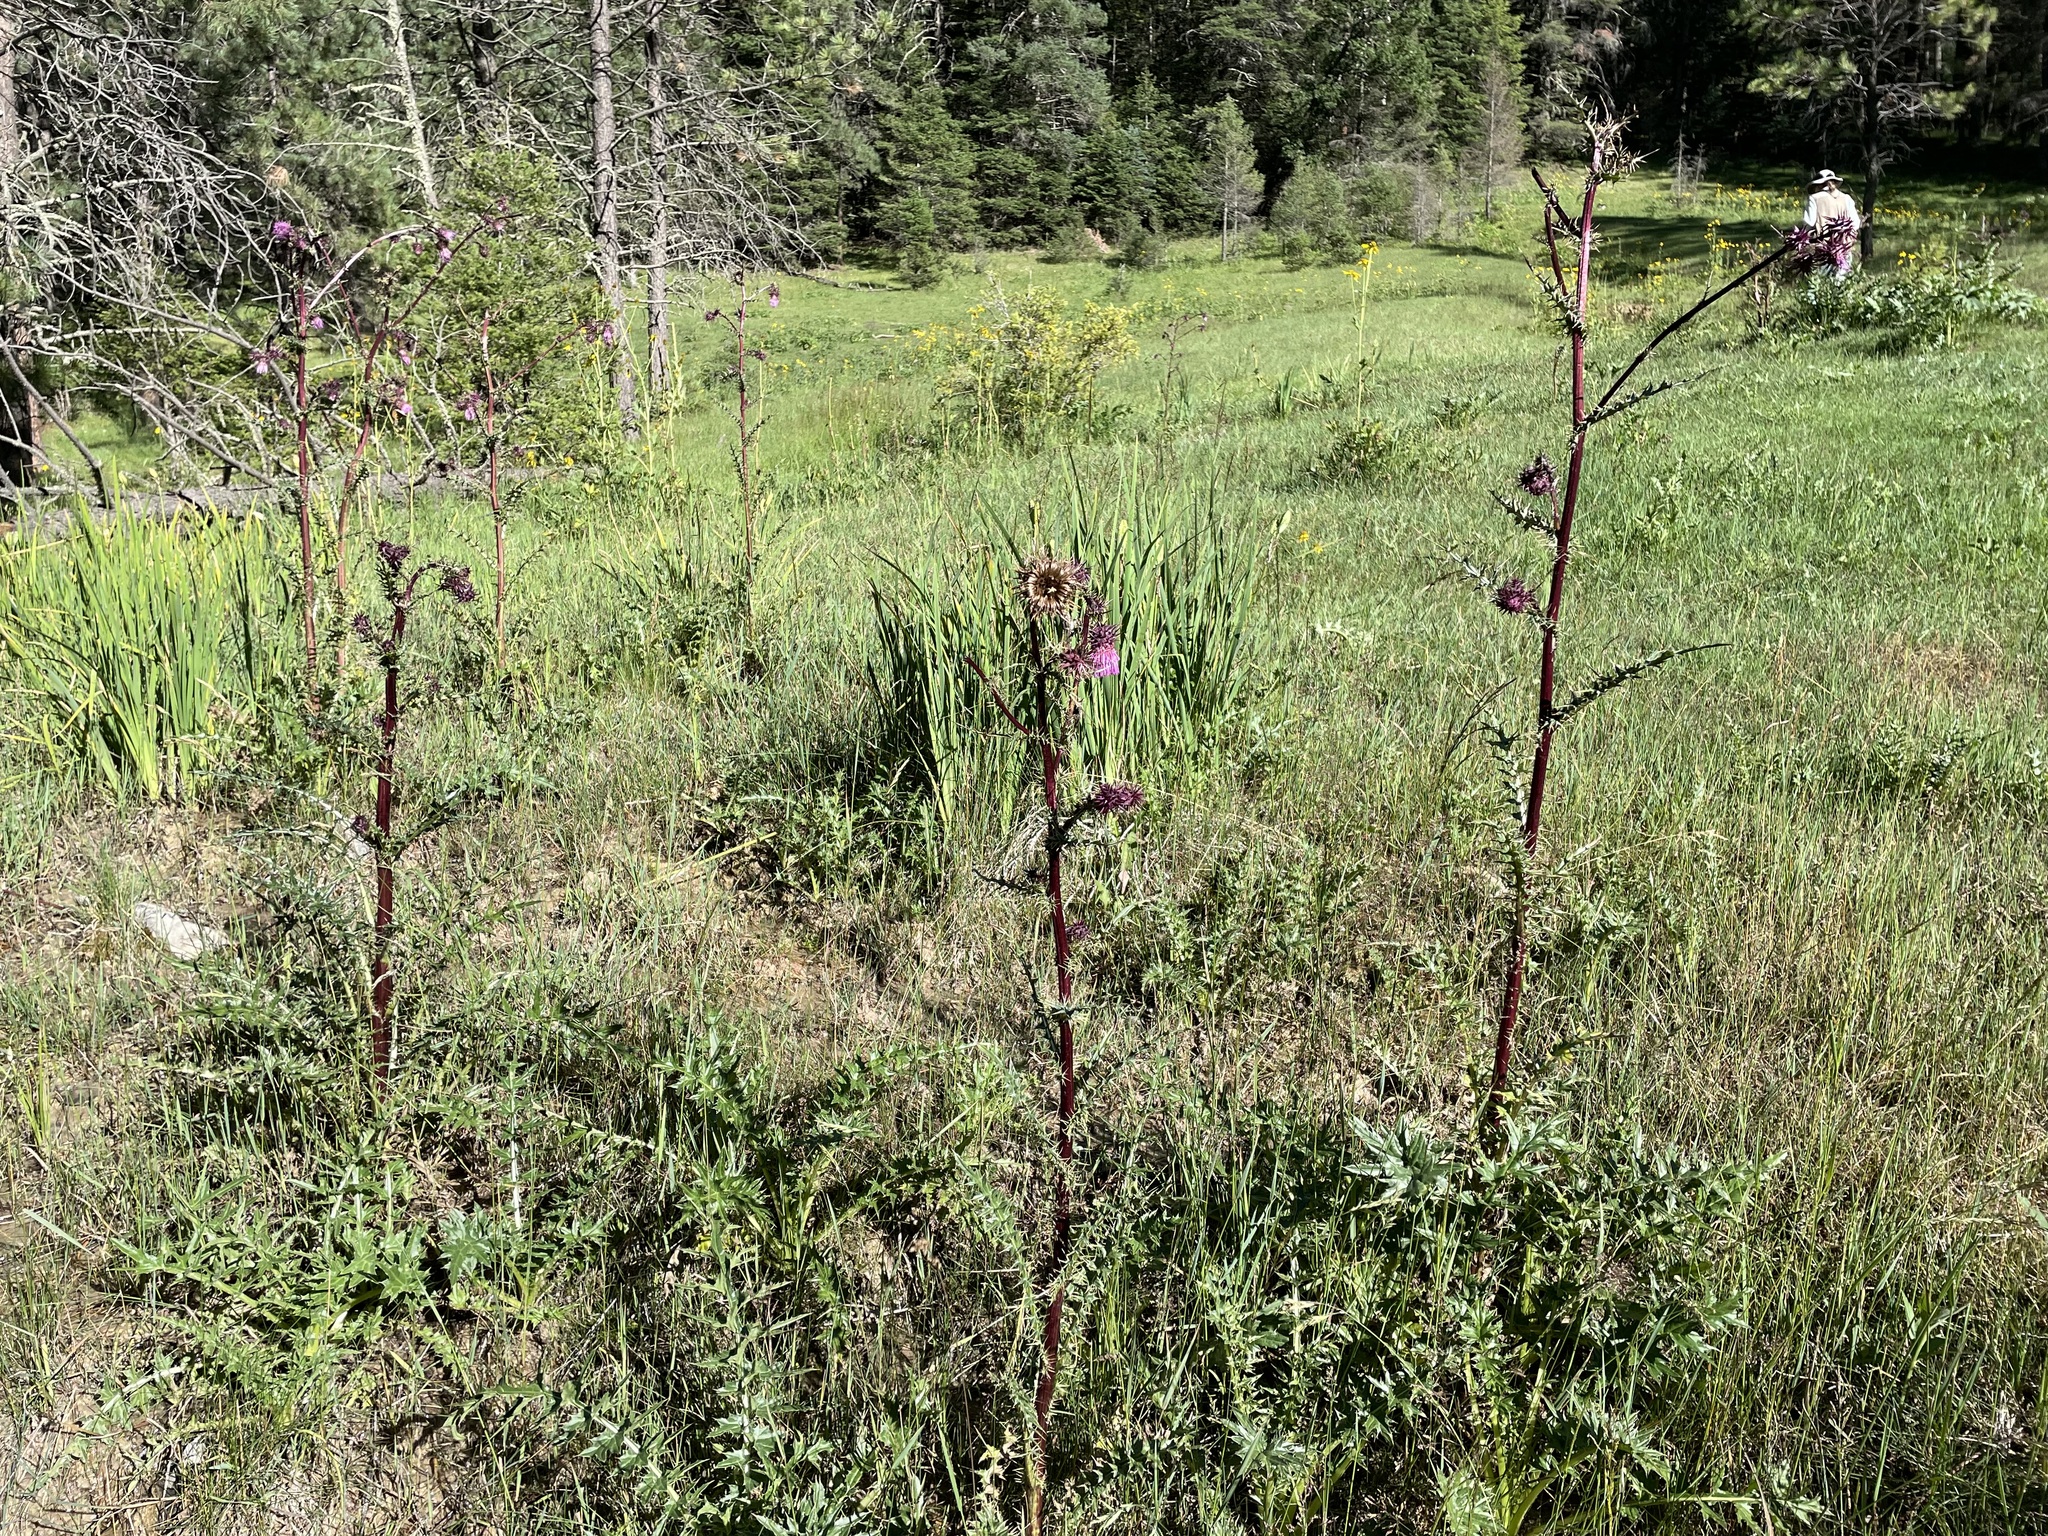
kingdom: Plantae
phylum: Tracheophyta
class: Magnoliopsida
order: Asterales
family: Asteraceae
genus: Cirsium
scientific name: Cirsium vinaceum
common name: Sacramento mountain thistle
